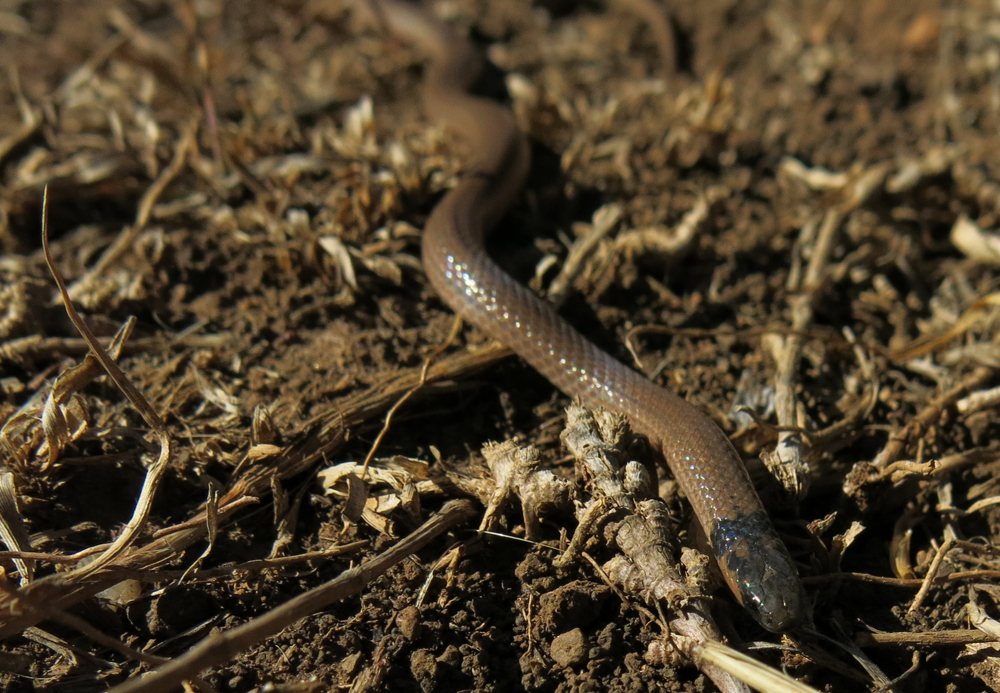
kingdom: Animalia
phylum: Chordata
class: Squamata
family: Atractaspididae
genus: Aparallactus
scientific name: Aparallactus capensis
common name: Cape centipede eater
